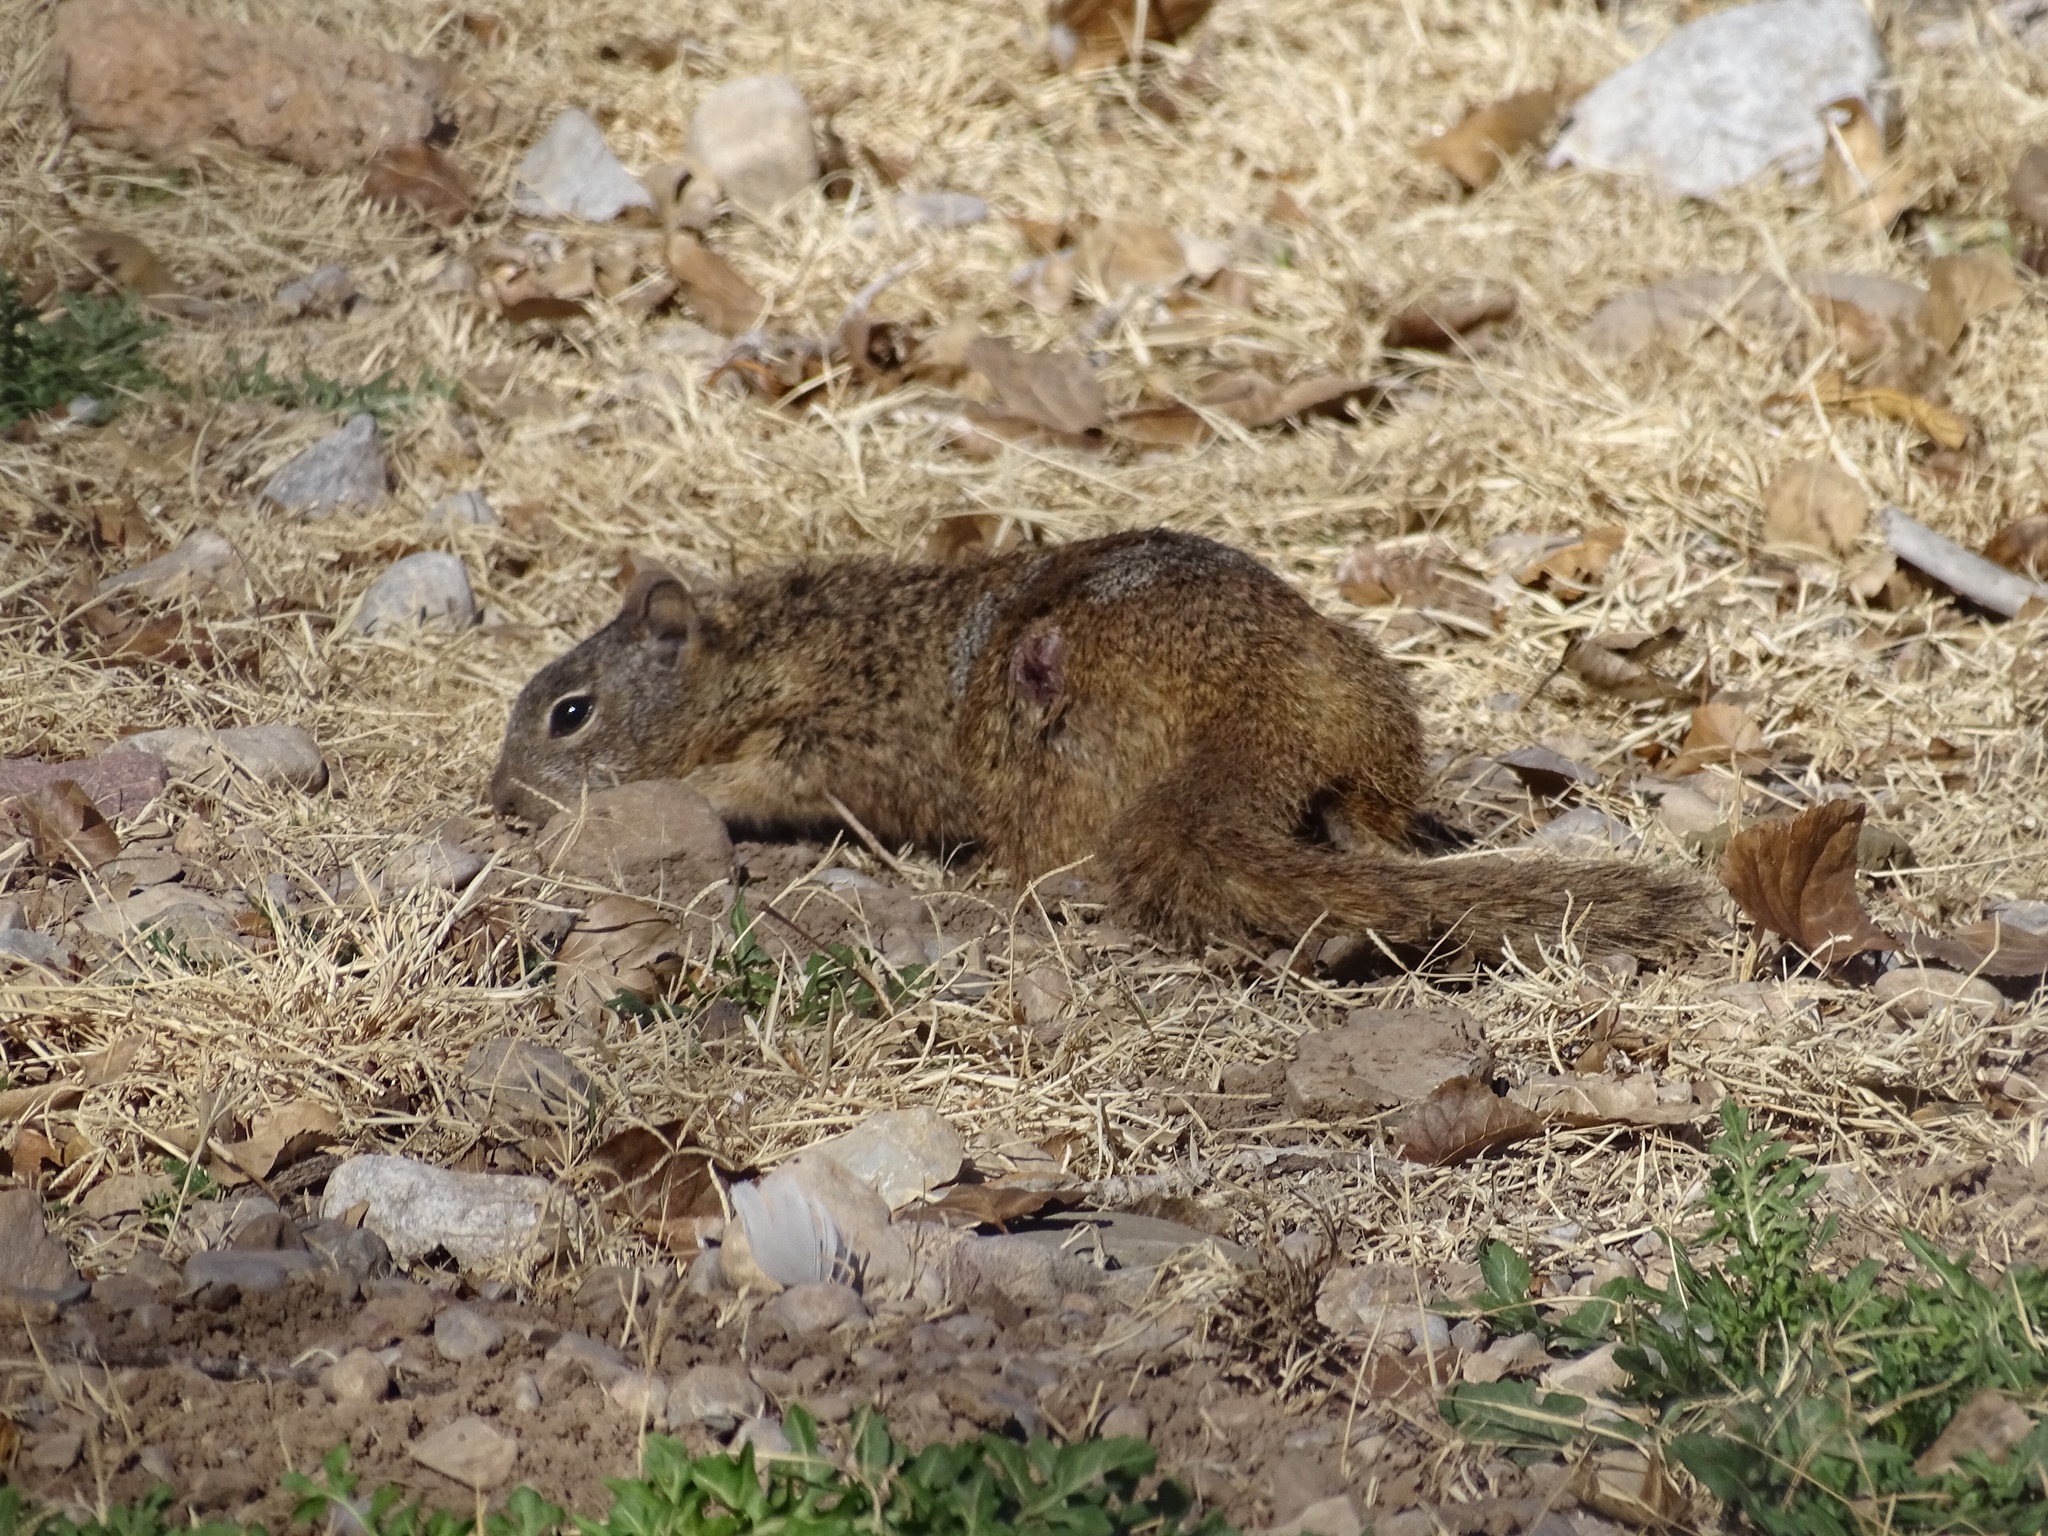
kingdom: Animalia
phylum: Chordata
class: Mammalia
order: Rodentia
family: Sciuridae
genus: Otospermophilus
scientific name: Otospermophilus variegatus
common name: Rock squirrel
